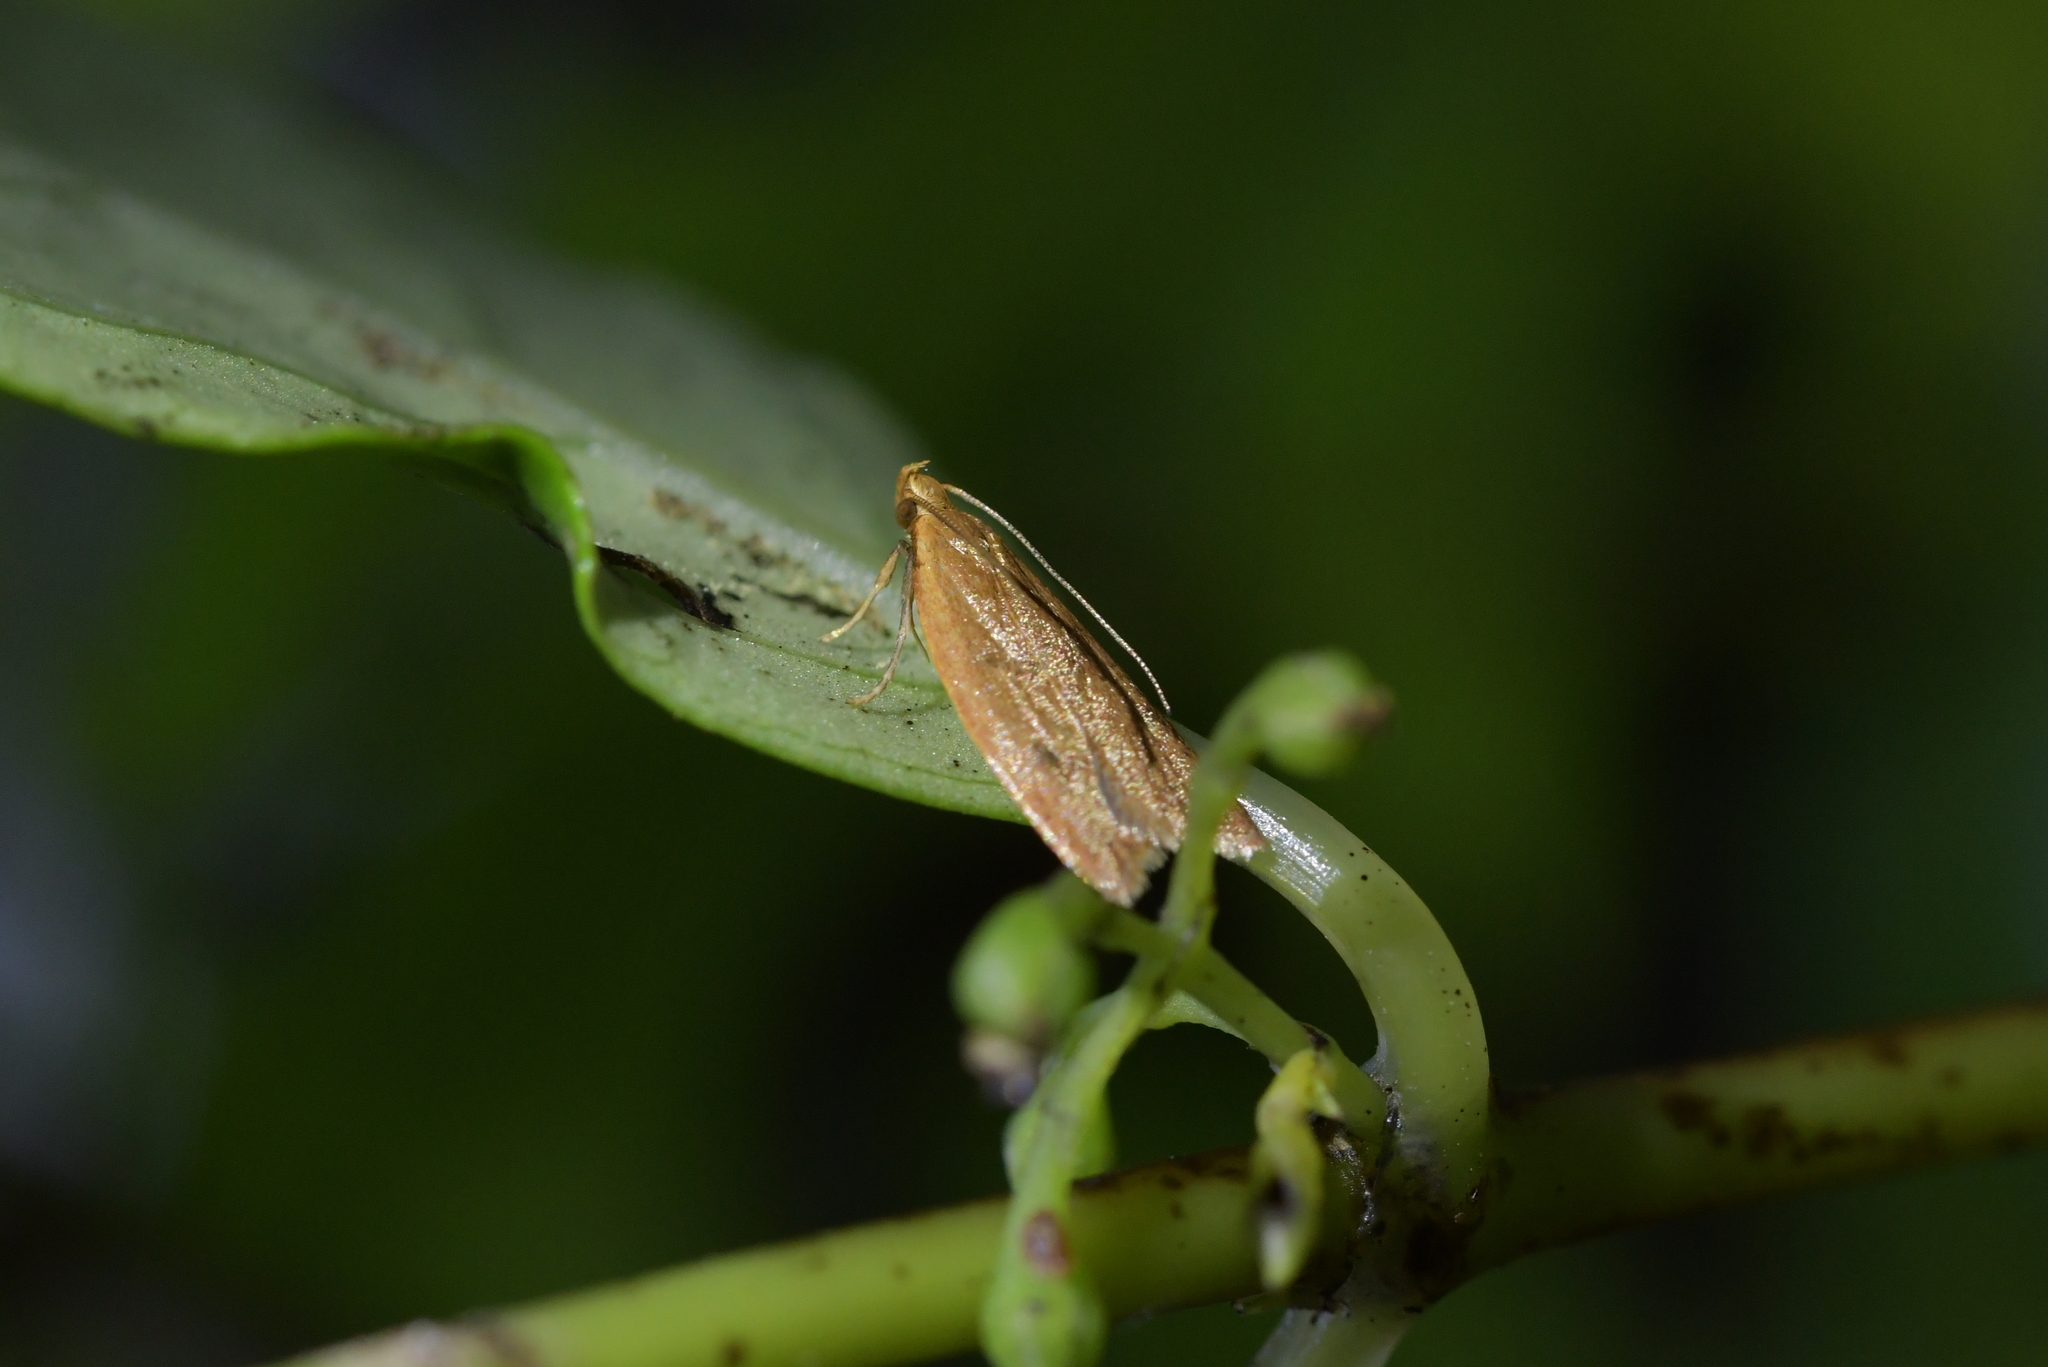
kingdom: Animalia
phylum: Arthropoda
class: Insecta
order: Lepidoptera
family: Oecophoridae
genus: Gymnobathra
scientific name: Gymnobathra sarcoxantha
